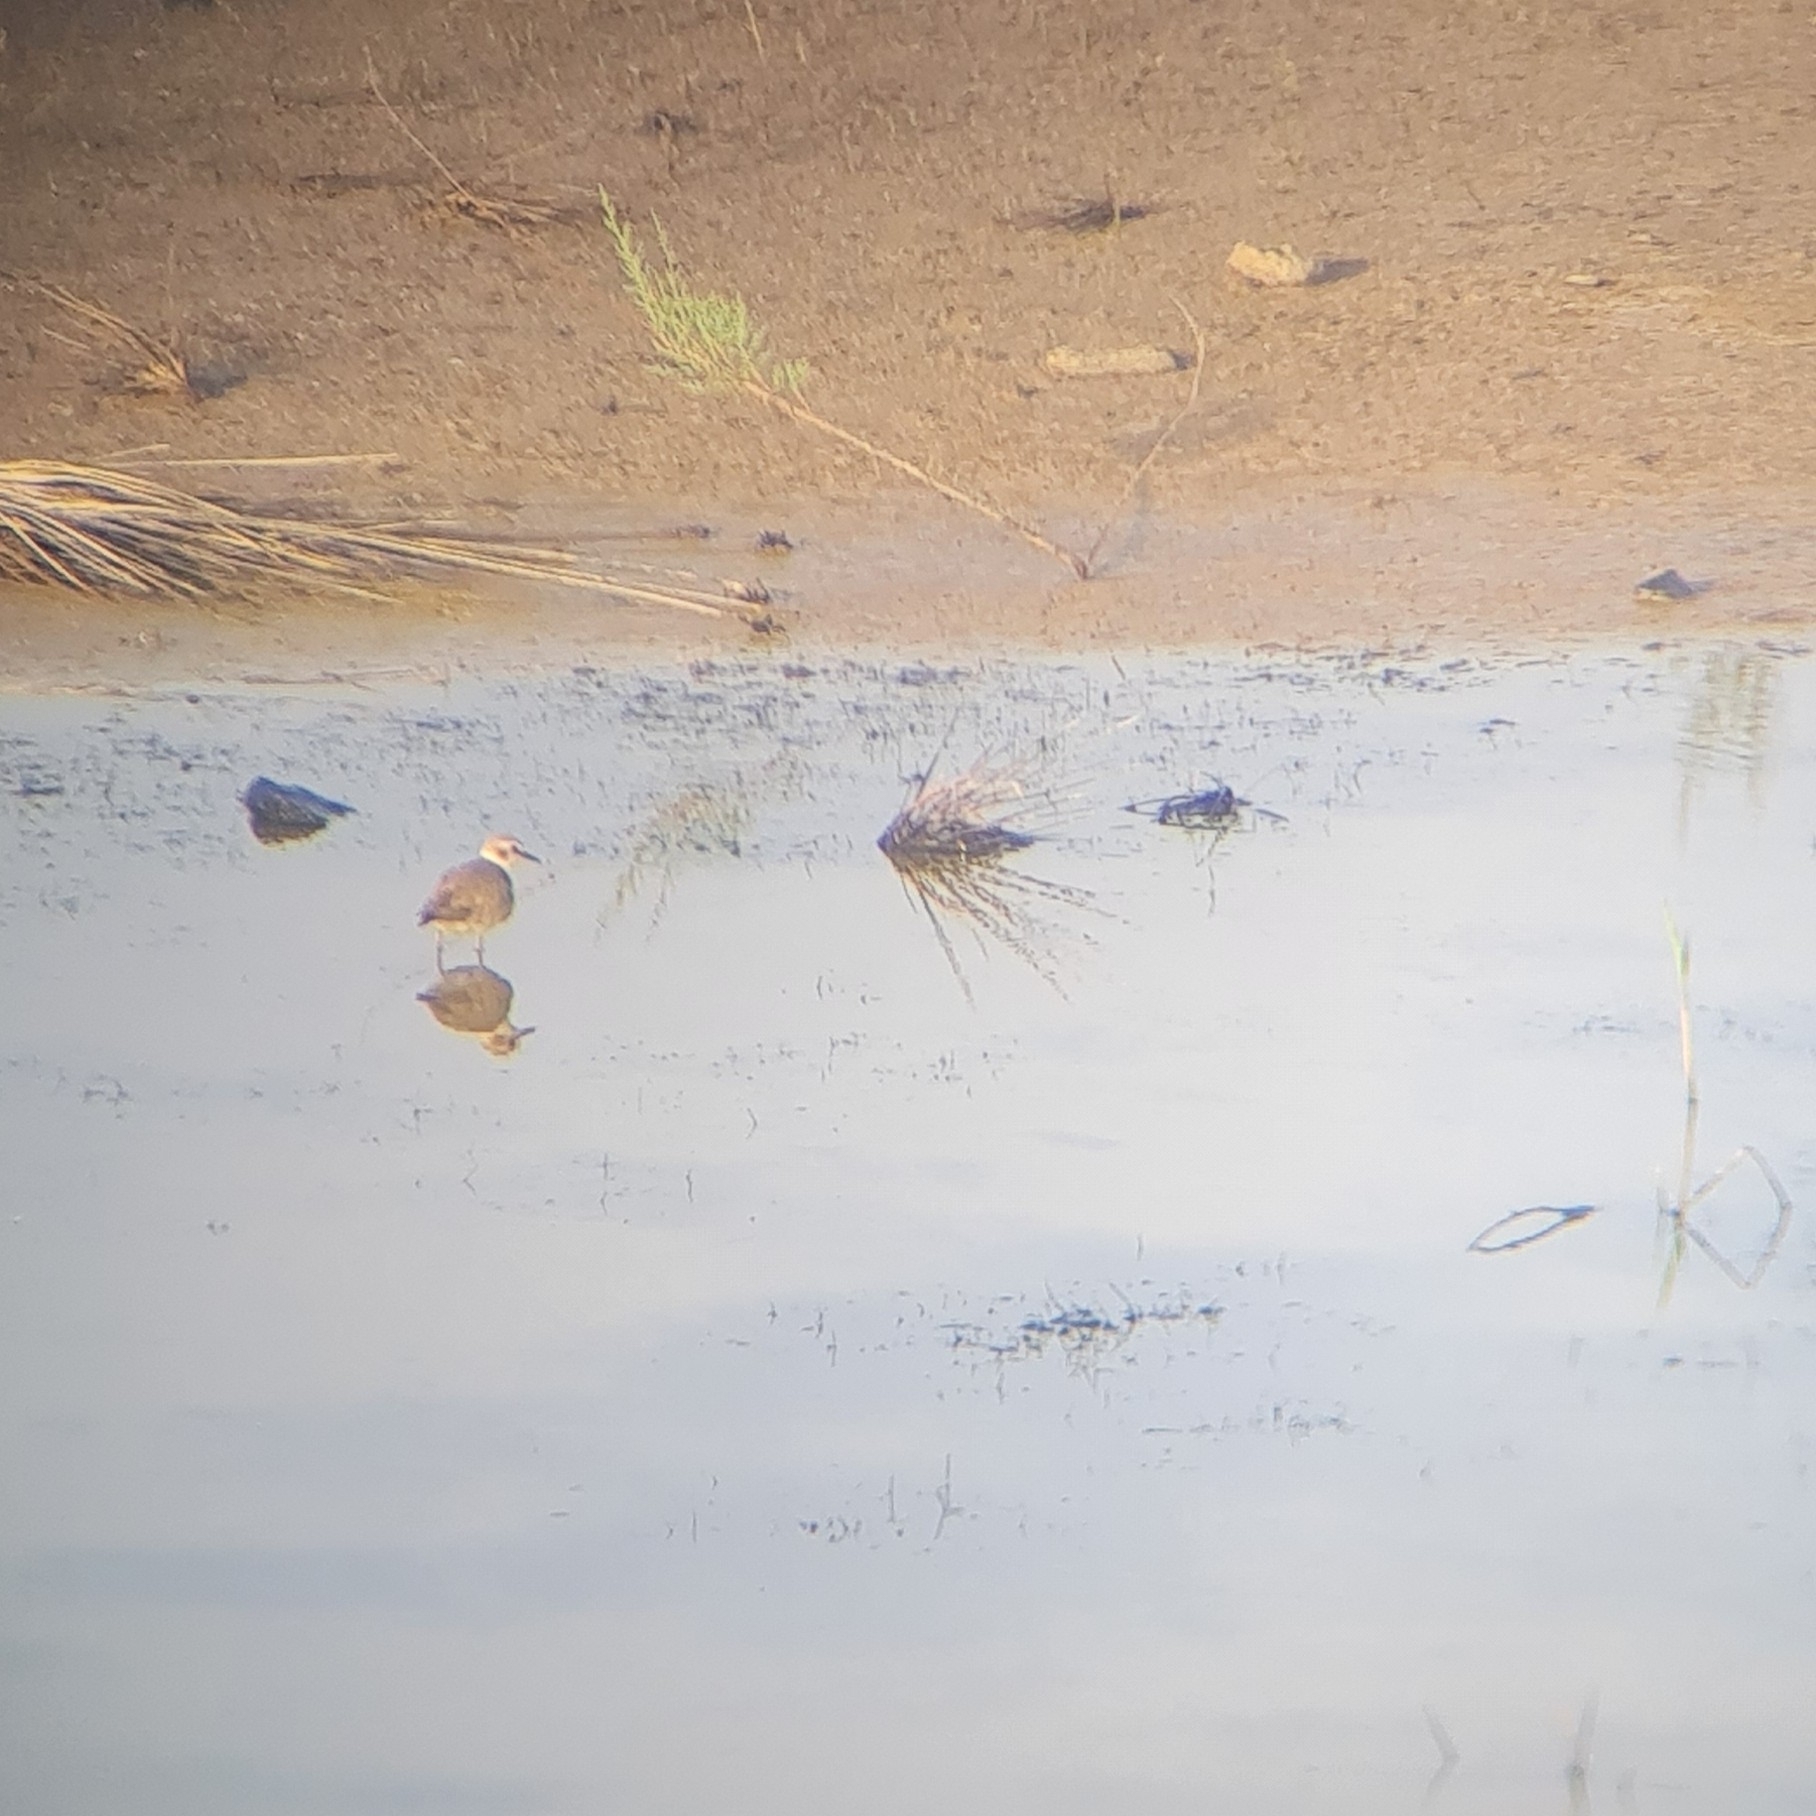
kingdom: Animalia
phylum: Chordata
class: Aves
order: Charadriiformes
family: Charadriidae
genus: Charadrius
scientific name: Charadrius alexandrinus
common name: Kentish plover
